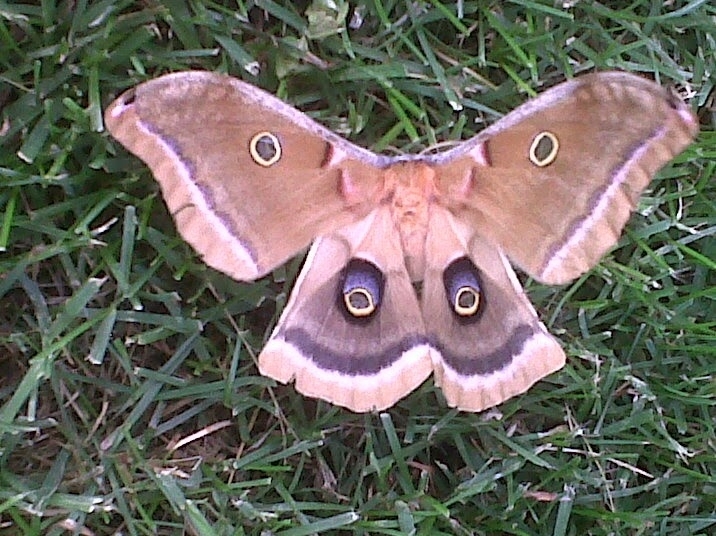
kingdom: Animalia
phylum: Arthropoda
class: Insecta
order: Lepidoptera
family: Saturniidae
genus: Antheraea
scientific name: Antheraea polyphemus
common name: Polyphemus moth
